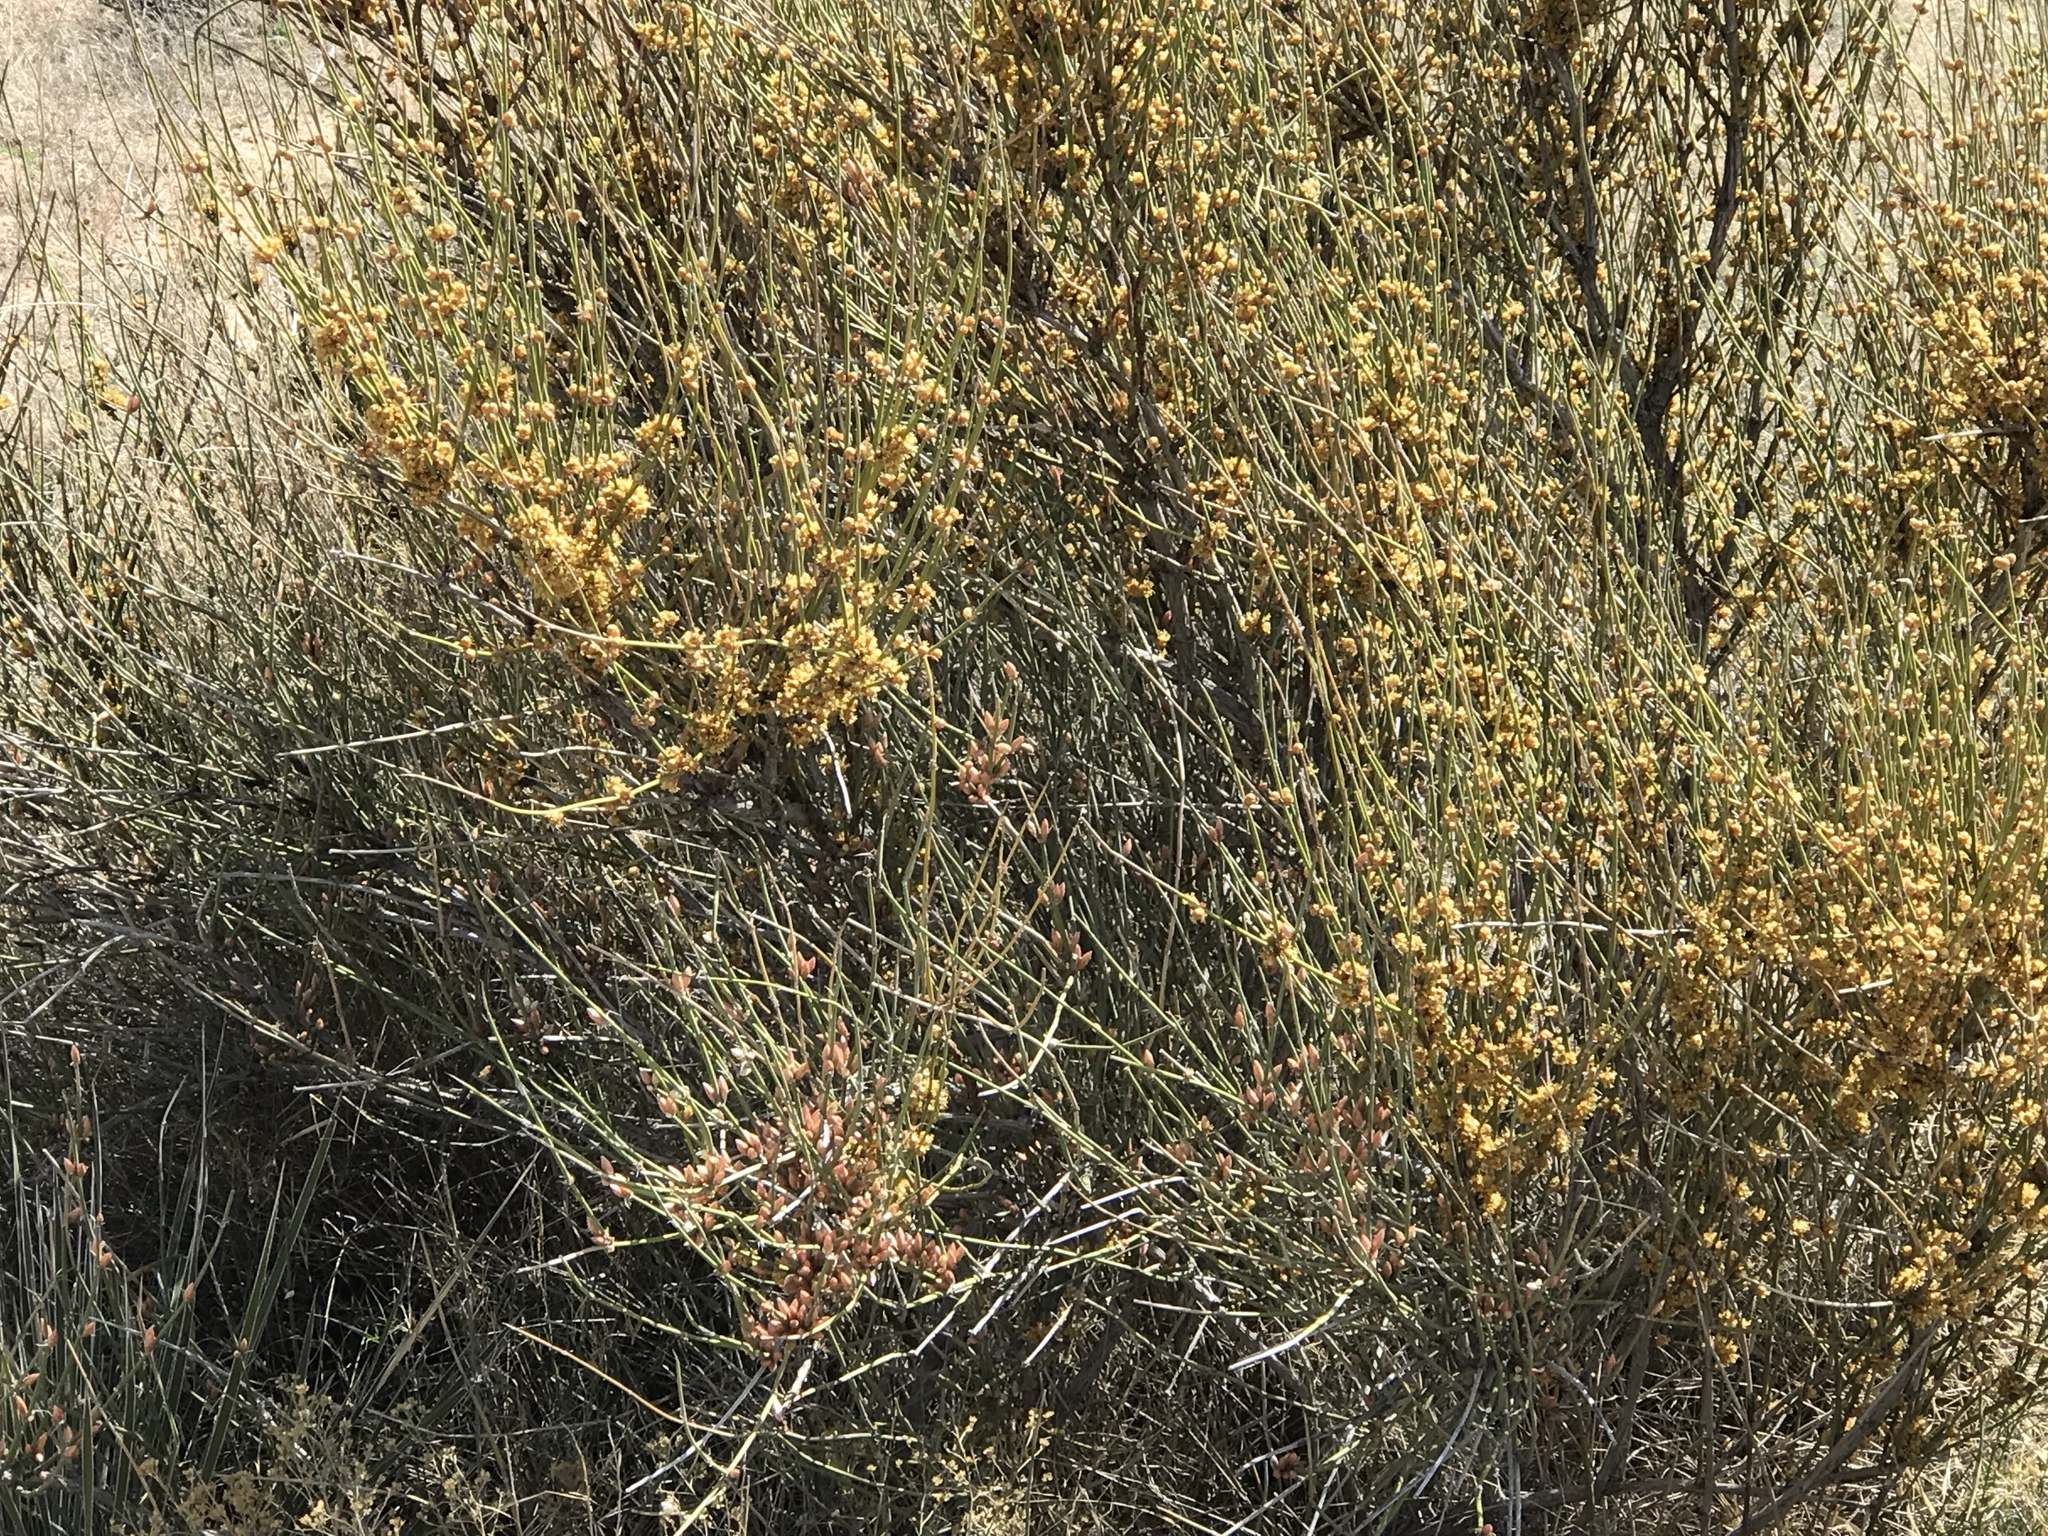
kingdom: Plantae
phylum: Tracheophyta
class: Gnetopsida
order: Ephedrales
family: Ephedraceae
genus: Ephedra
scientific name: Ephedra trifurca
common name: Mexican-tea
